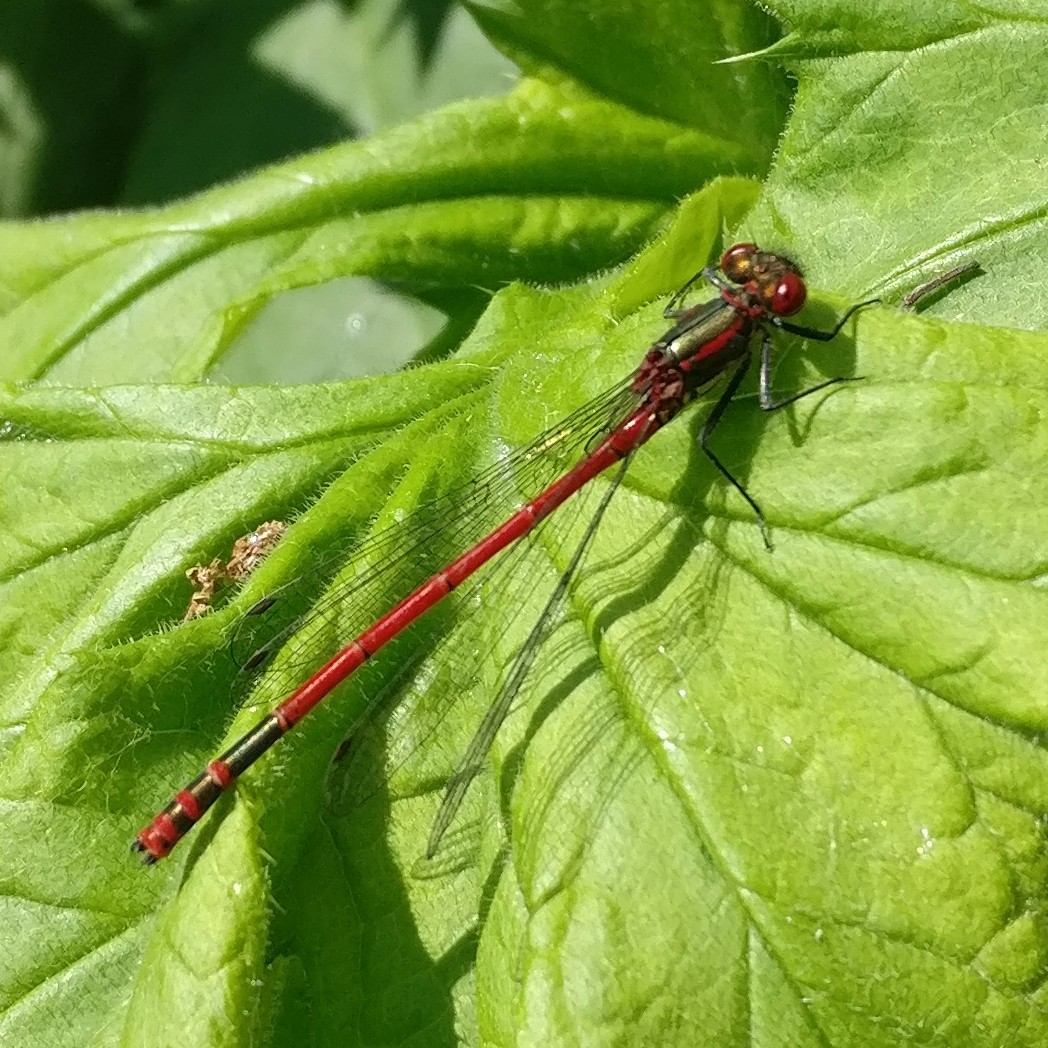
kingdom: Animalia
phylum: Arthropoda
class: Insecta
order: Odonata
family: Coenagrionidae
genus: Pyrrhosoma
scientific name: Pyrrhosoma nymphula
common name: Large red damsel
